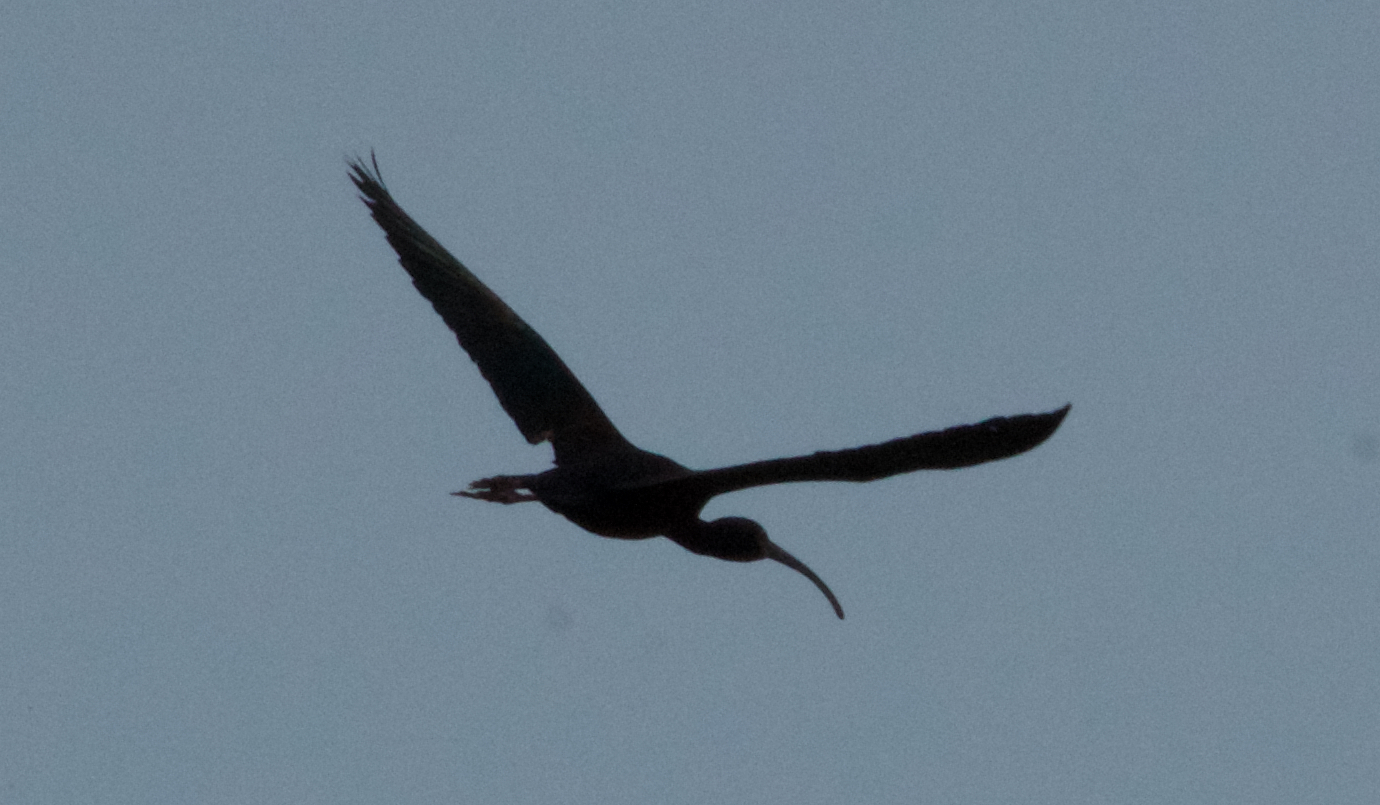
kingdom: Animalia
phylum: Chordata
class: Aves
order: Pelecaniformes
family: Threskiornithidae
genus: Plegadis
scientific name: Plegadis chihi
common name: White-faced ibis
